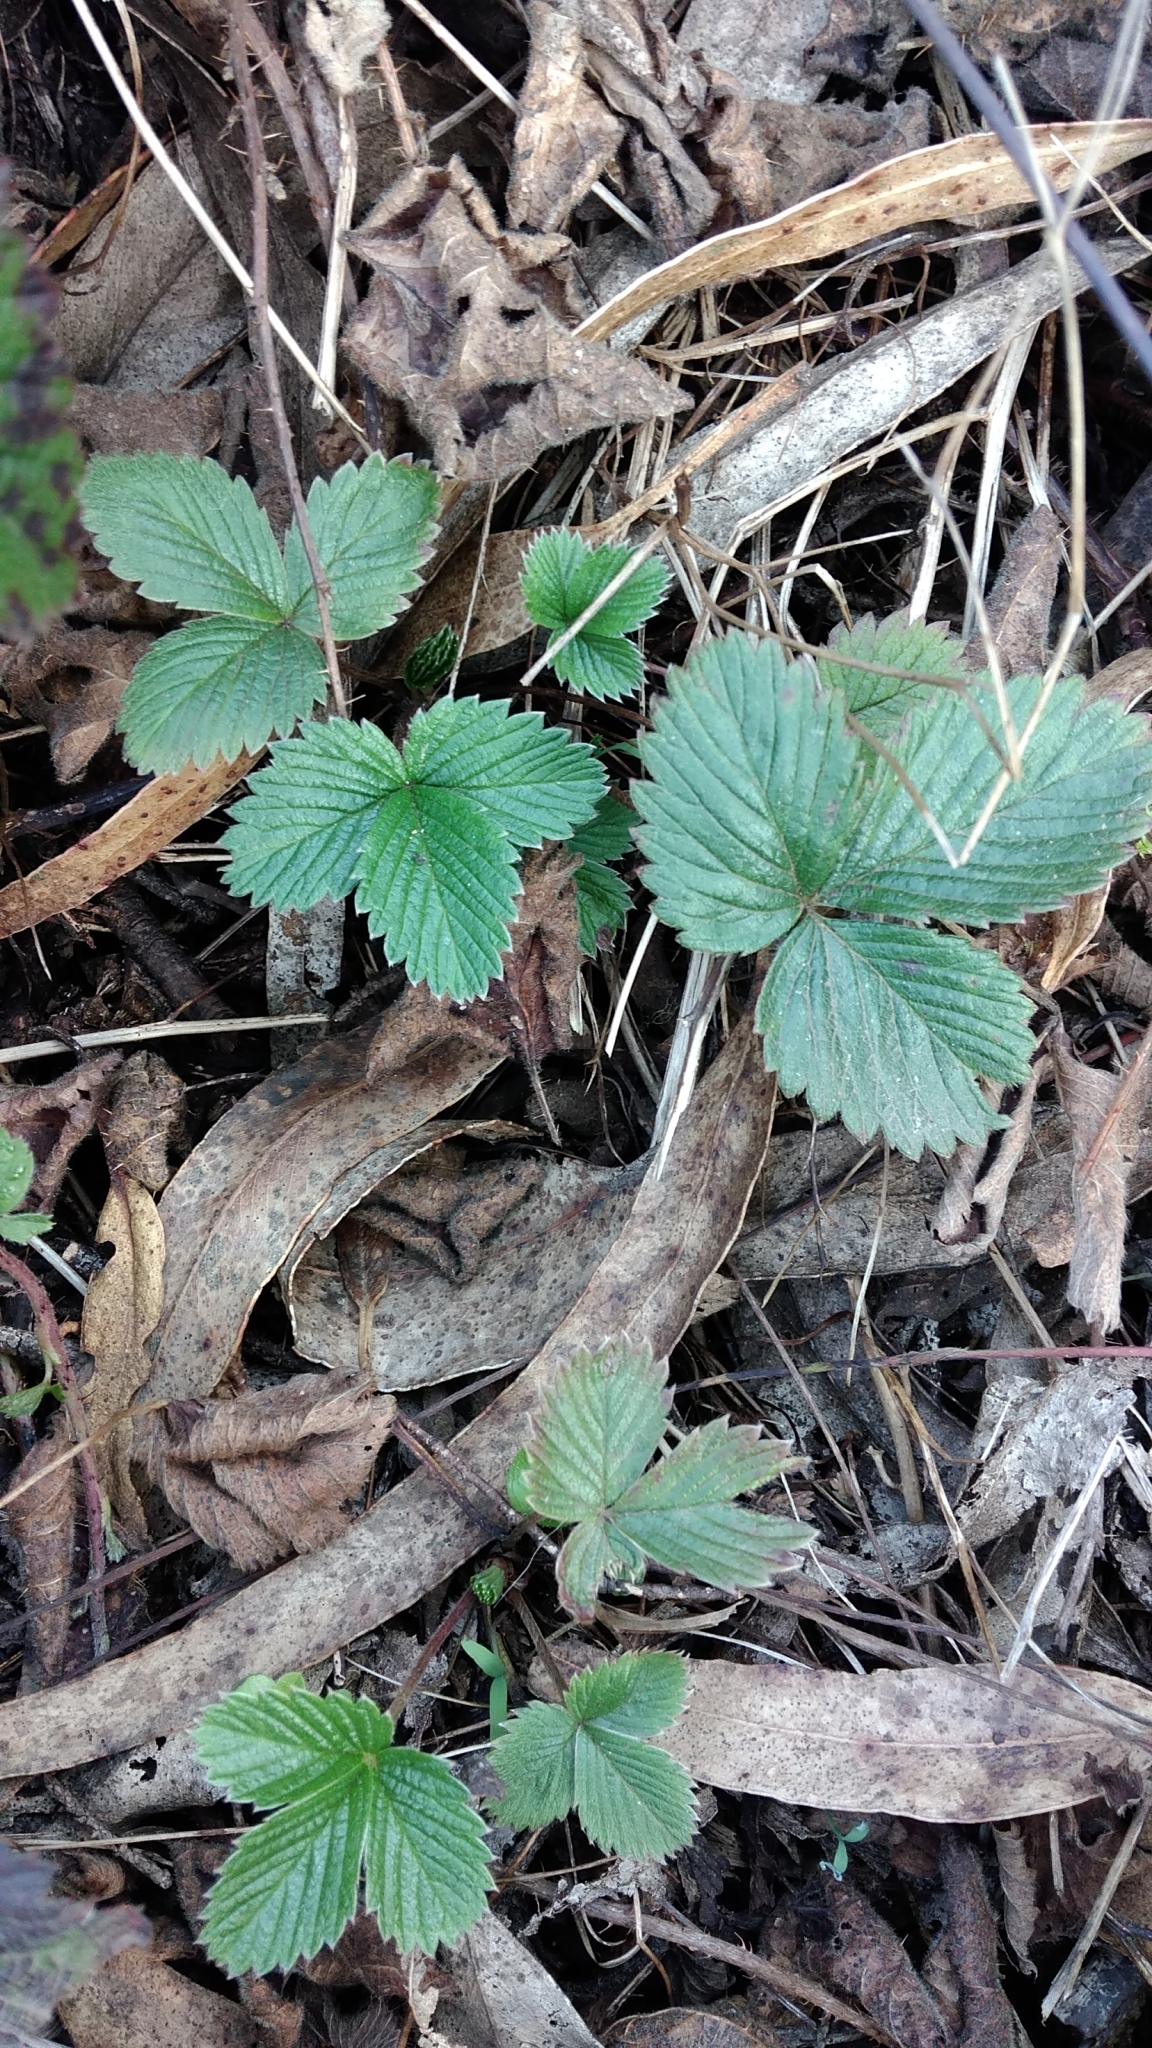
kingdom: Plantae
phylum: Tracheophyta
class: Magnoliopsida
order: Rosales
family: Rosaceae
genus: Fragaria
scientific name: Fragaria vesca
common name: Wild strawberry
